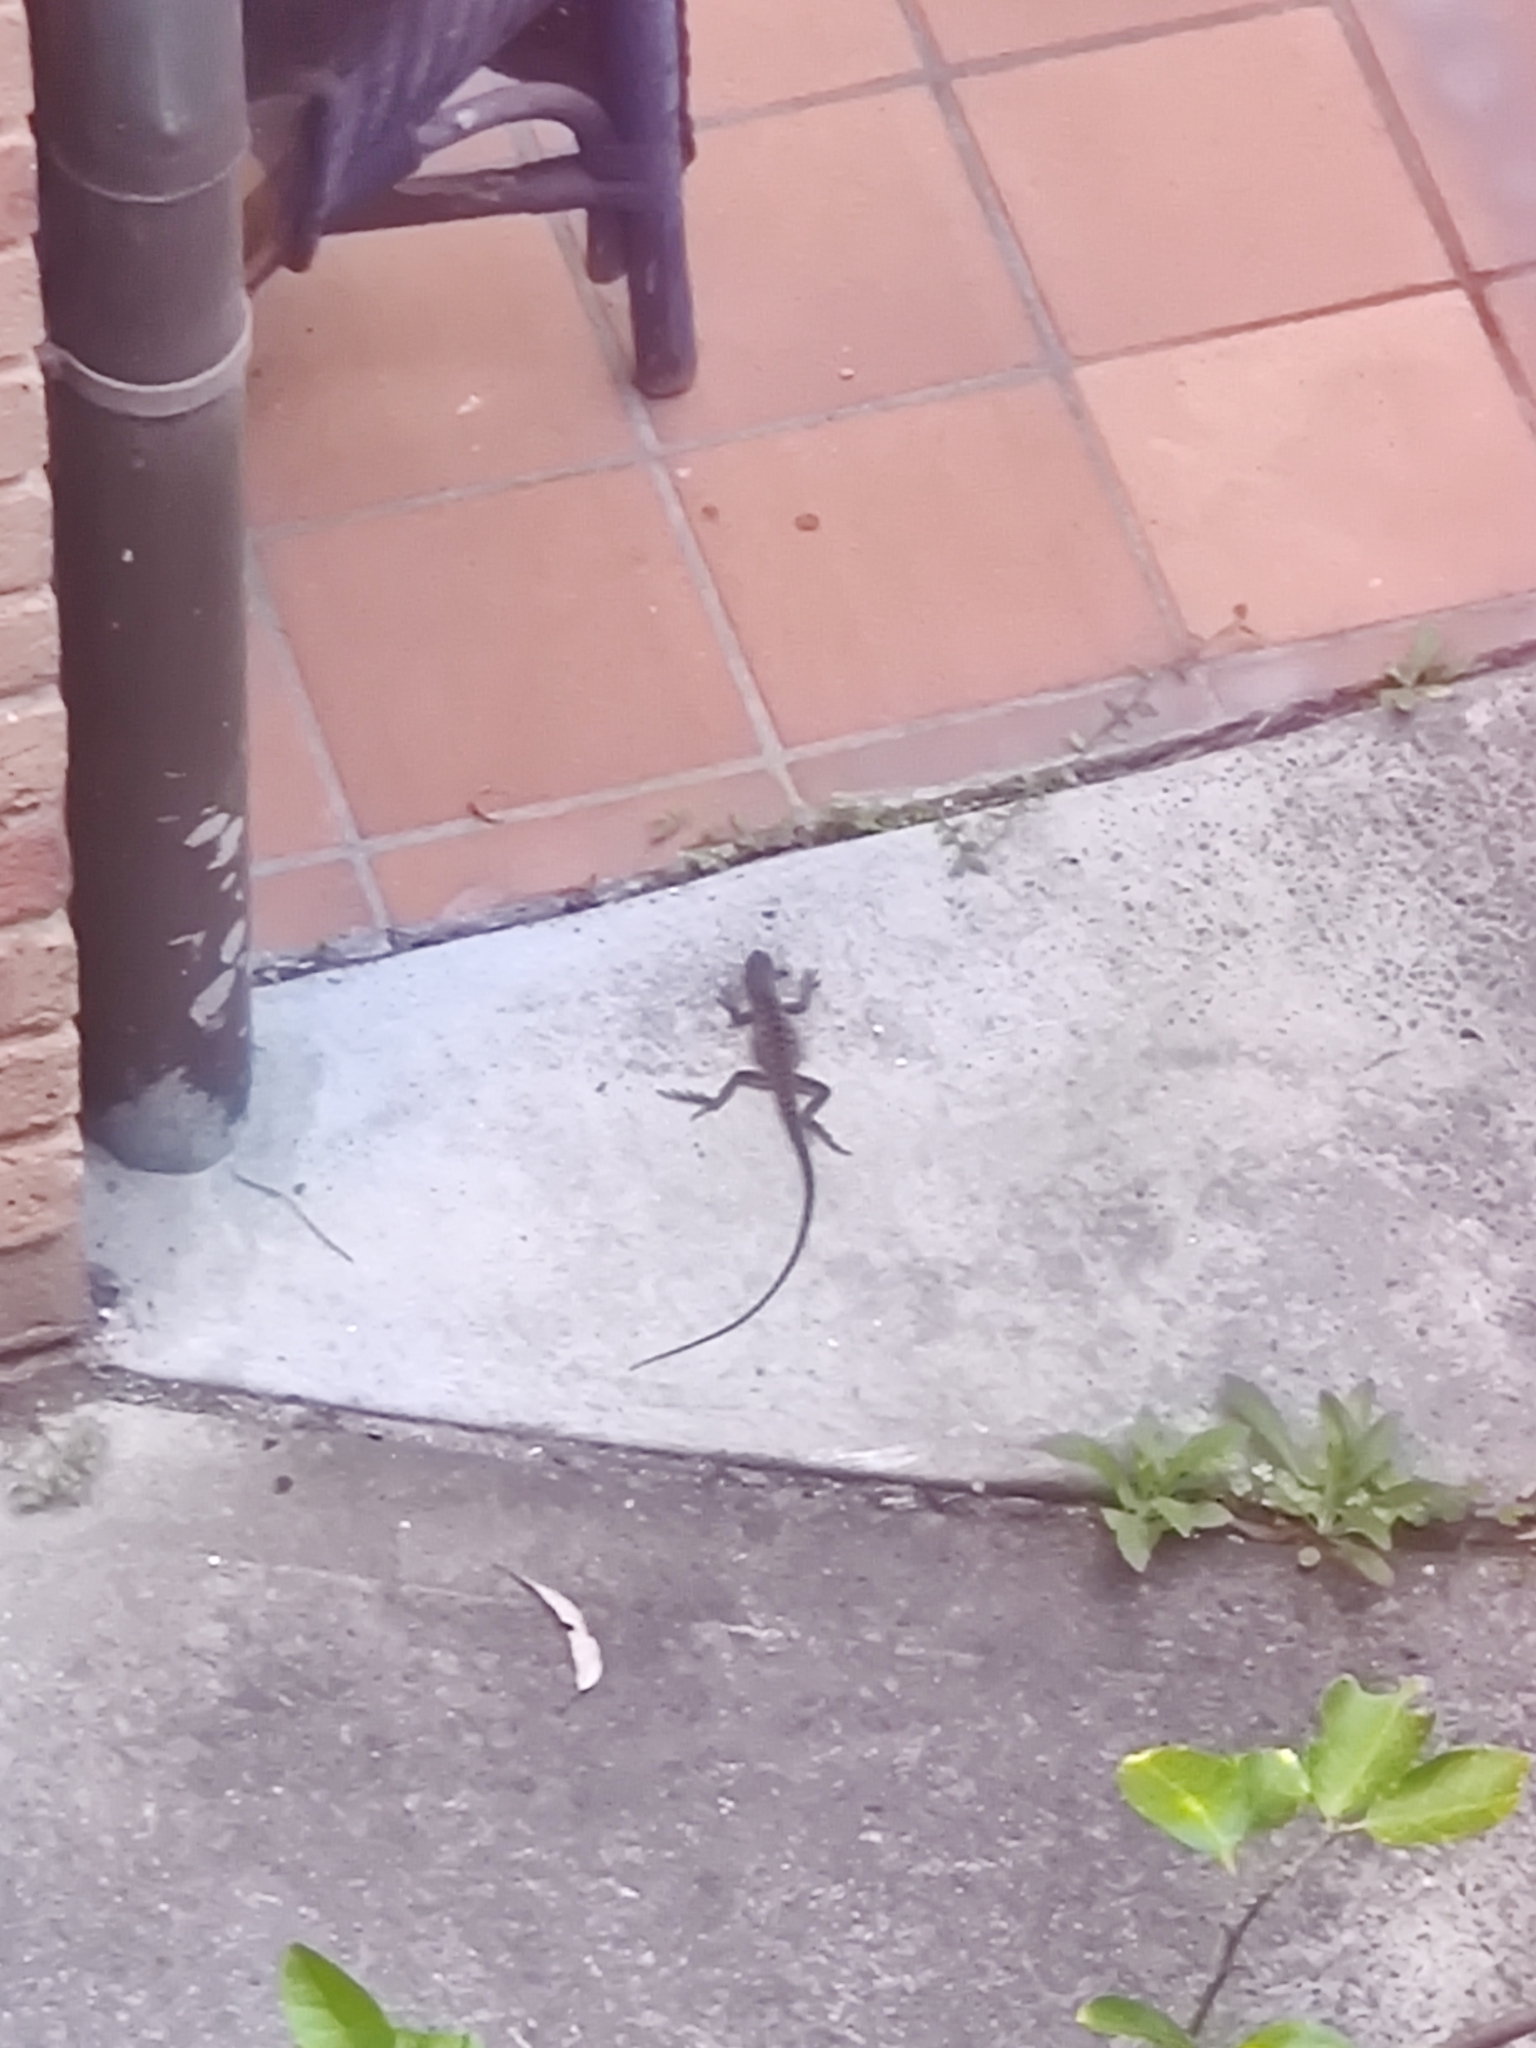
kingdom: Animalia
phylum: Chordata
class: Squamata
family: Agamidae
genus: Intellagama
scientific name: Intellagama lesueurii
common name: Eastern water dragon
